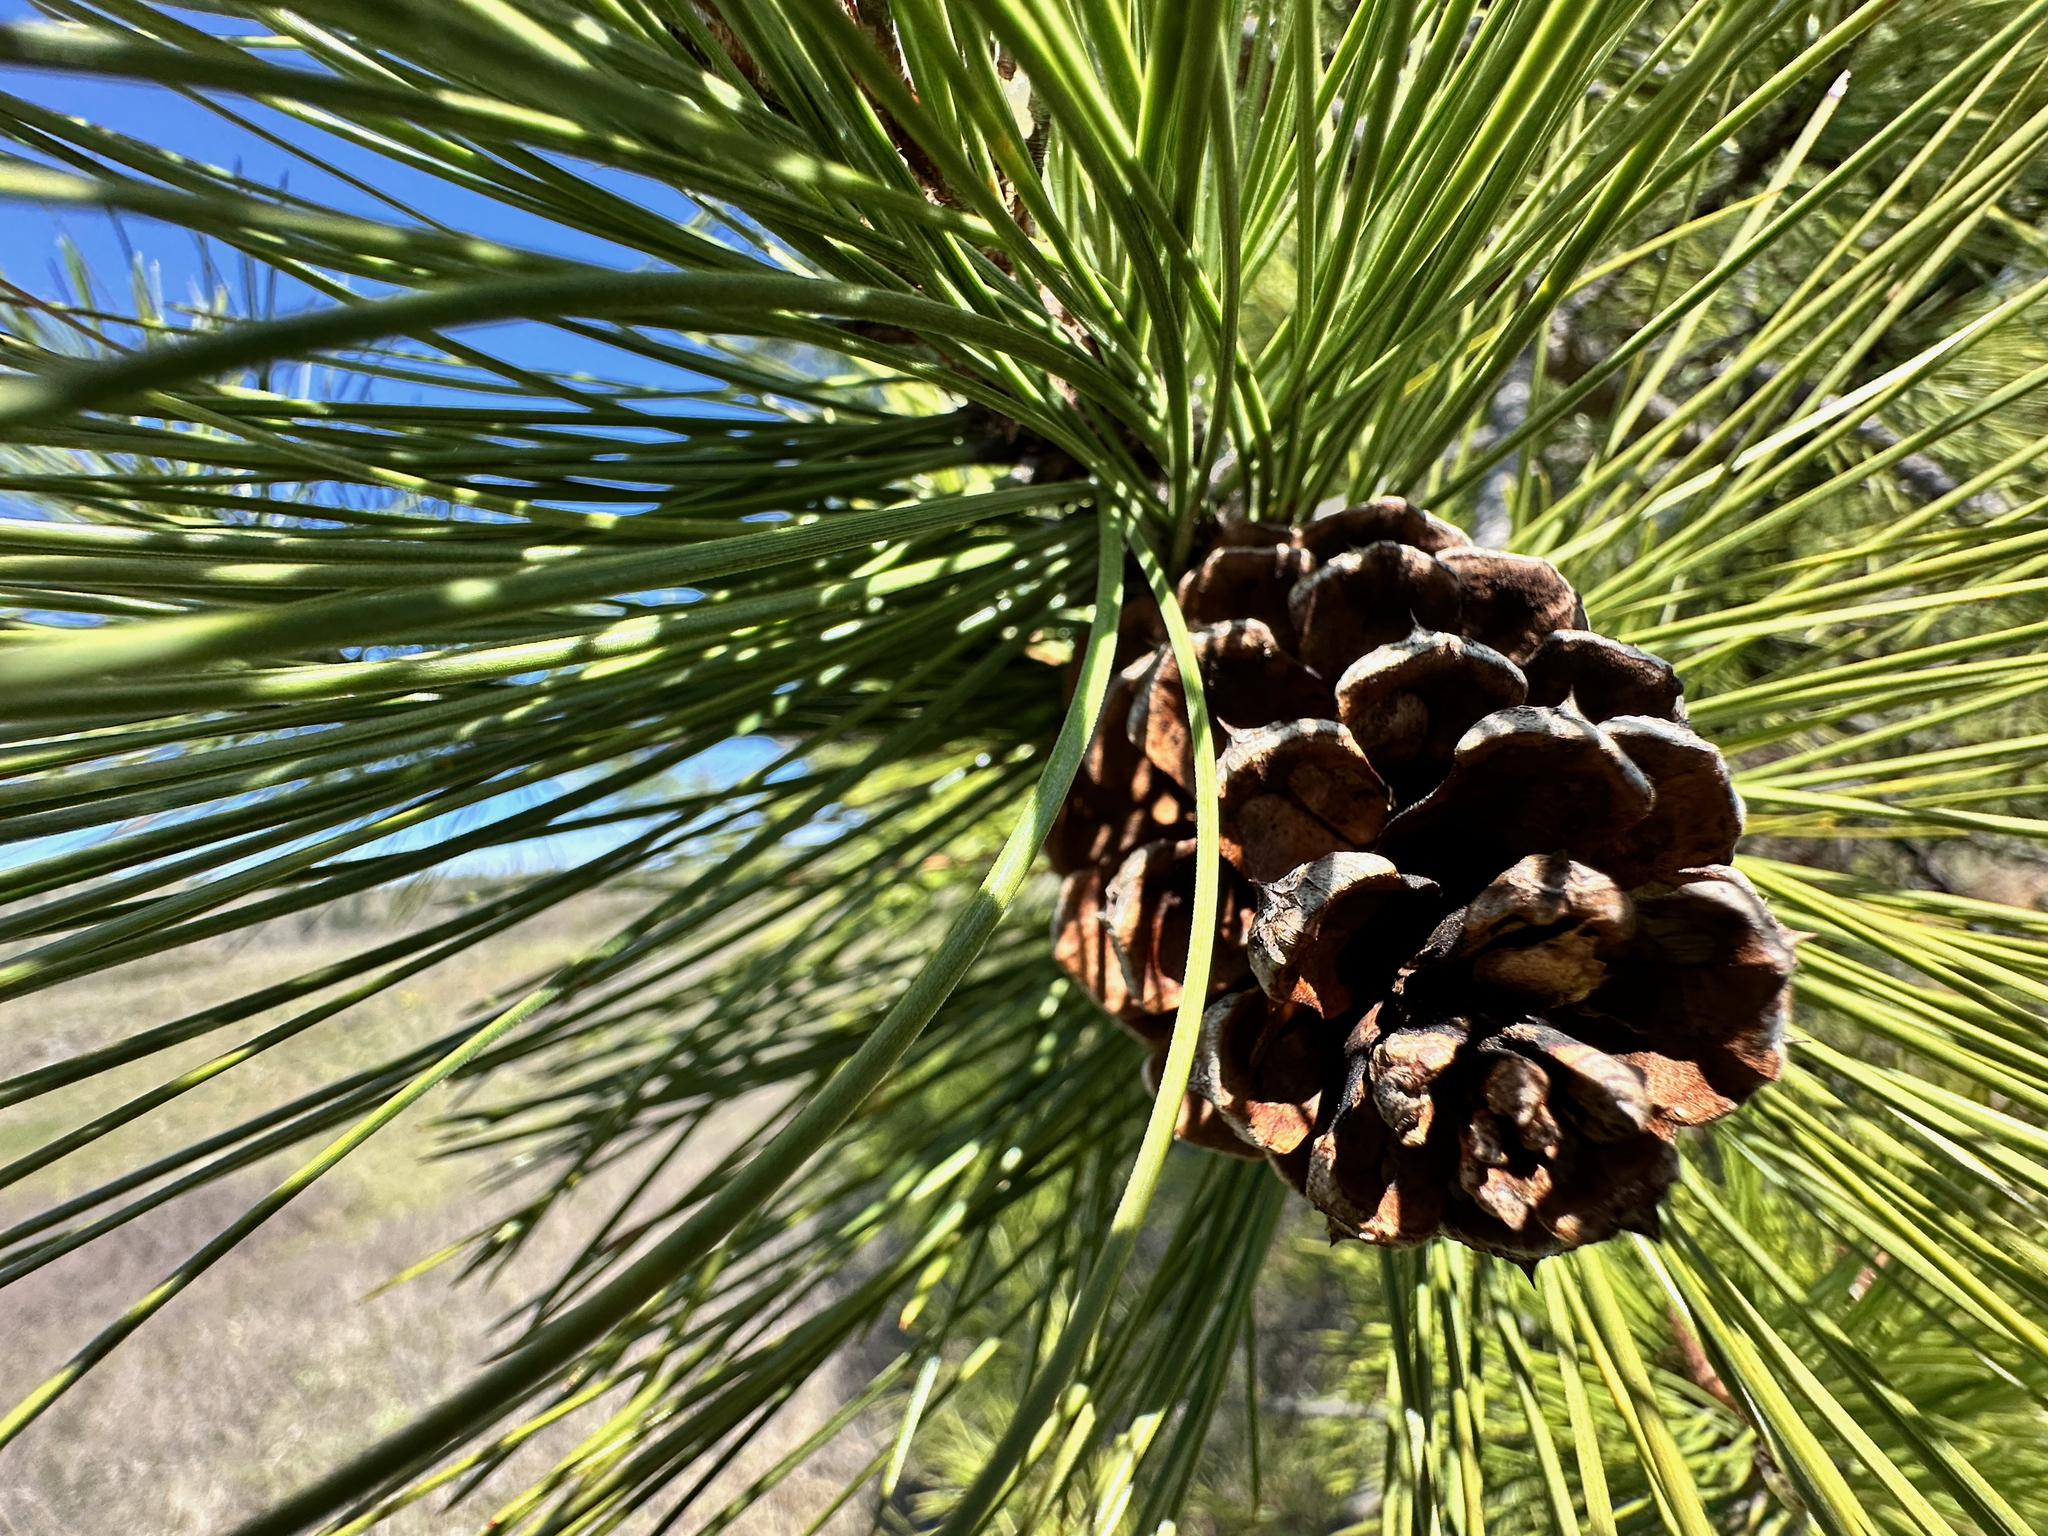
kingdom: Plantae
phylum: Tracheophyta
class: Pinopsida
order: Pinales
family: Pinaceae
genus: Pinus
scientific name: Pinus ponderosa
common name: Western yellow-pine
